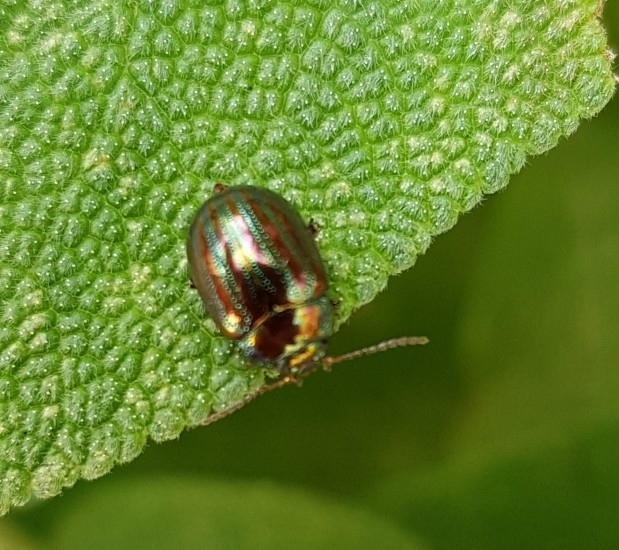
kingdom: Animalia
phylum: Arthropoda
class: Insecta
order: Coleoptera
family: Chrysomelidae
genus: Chrysolina
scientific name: Chrysolina americana
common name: Rosemary beetle
